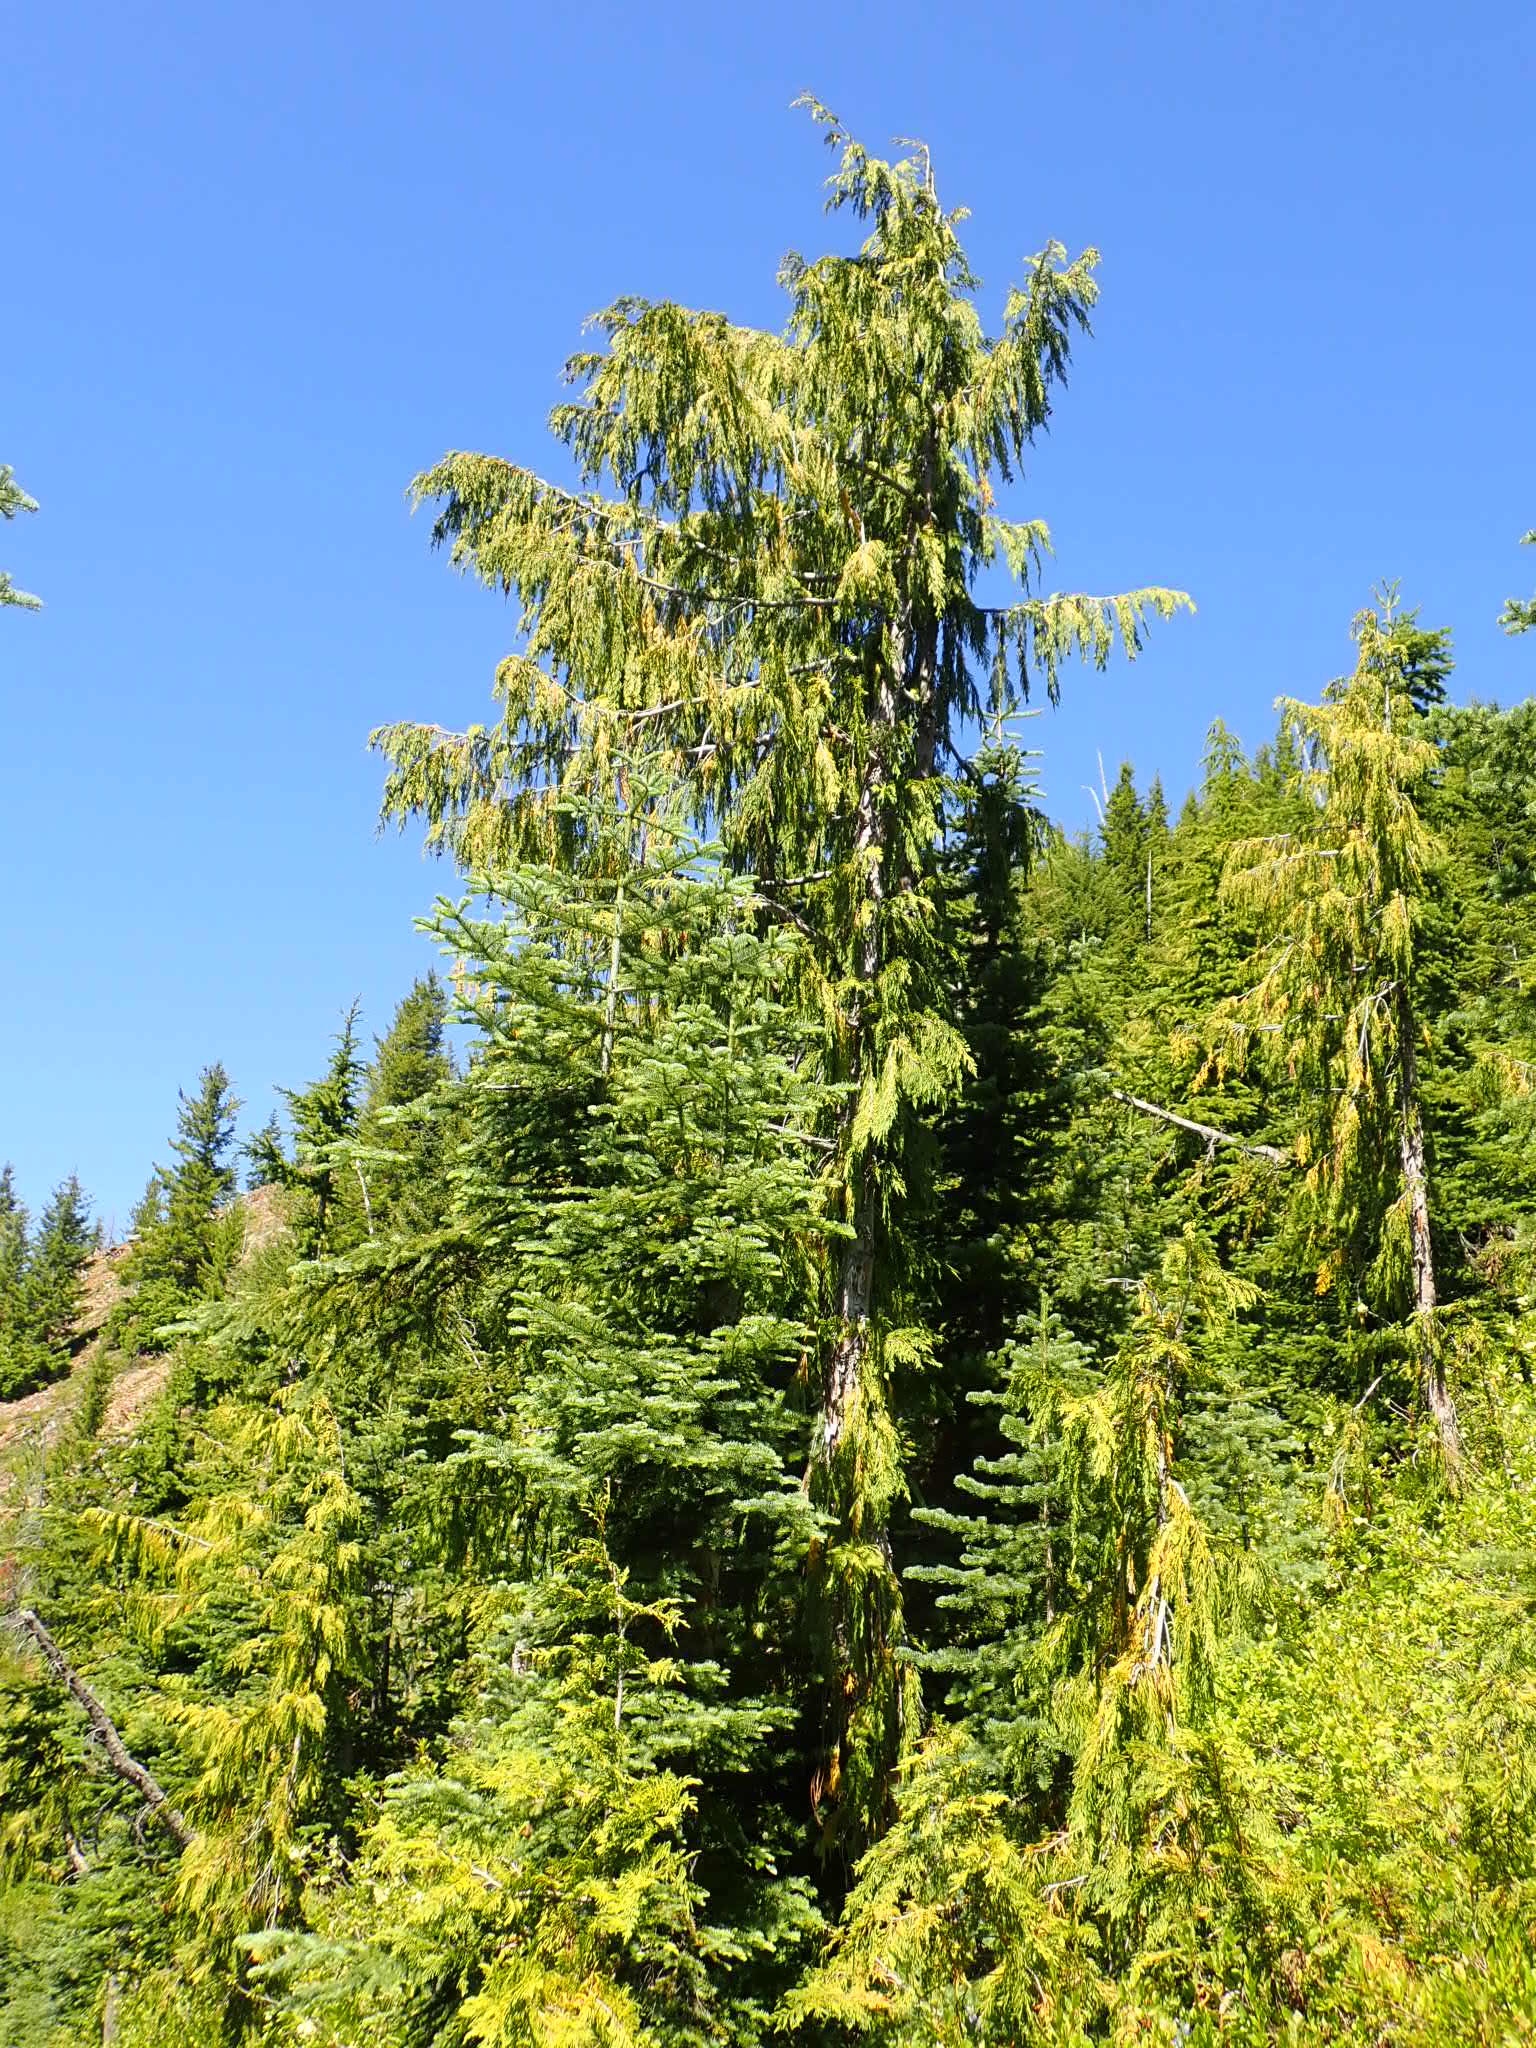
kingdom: Plantae
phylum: Tracheophyta
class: Pinopsida
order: Pinales
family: Cupressaceae
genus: Xanthocyparis
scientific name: Xanthocyparis nootkatensis
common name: Nootka cypress
